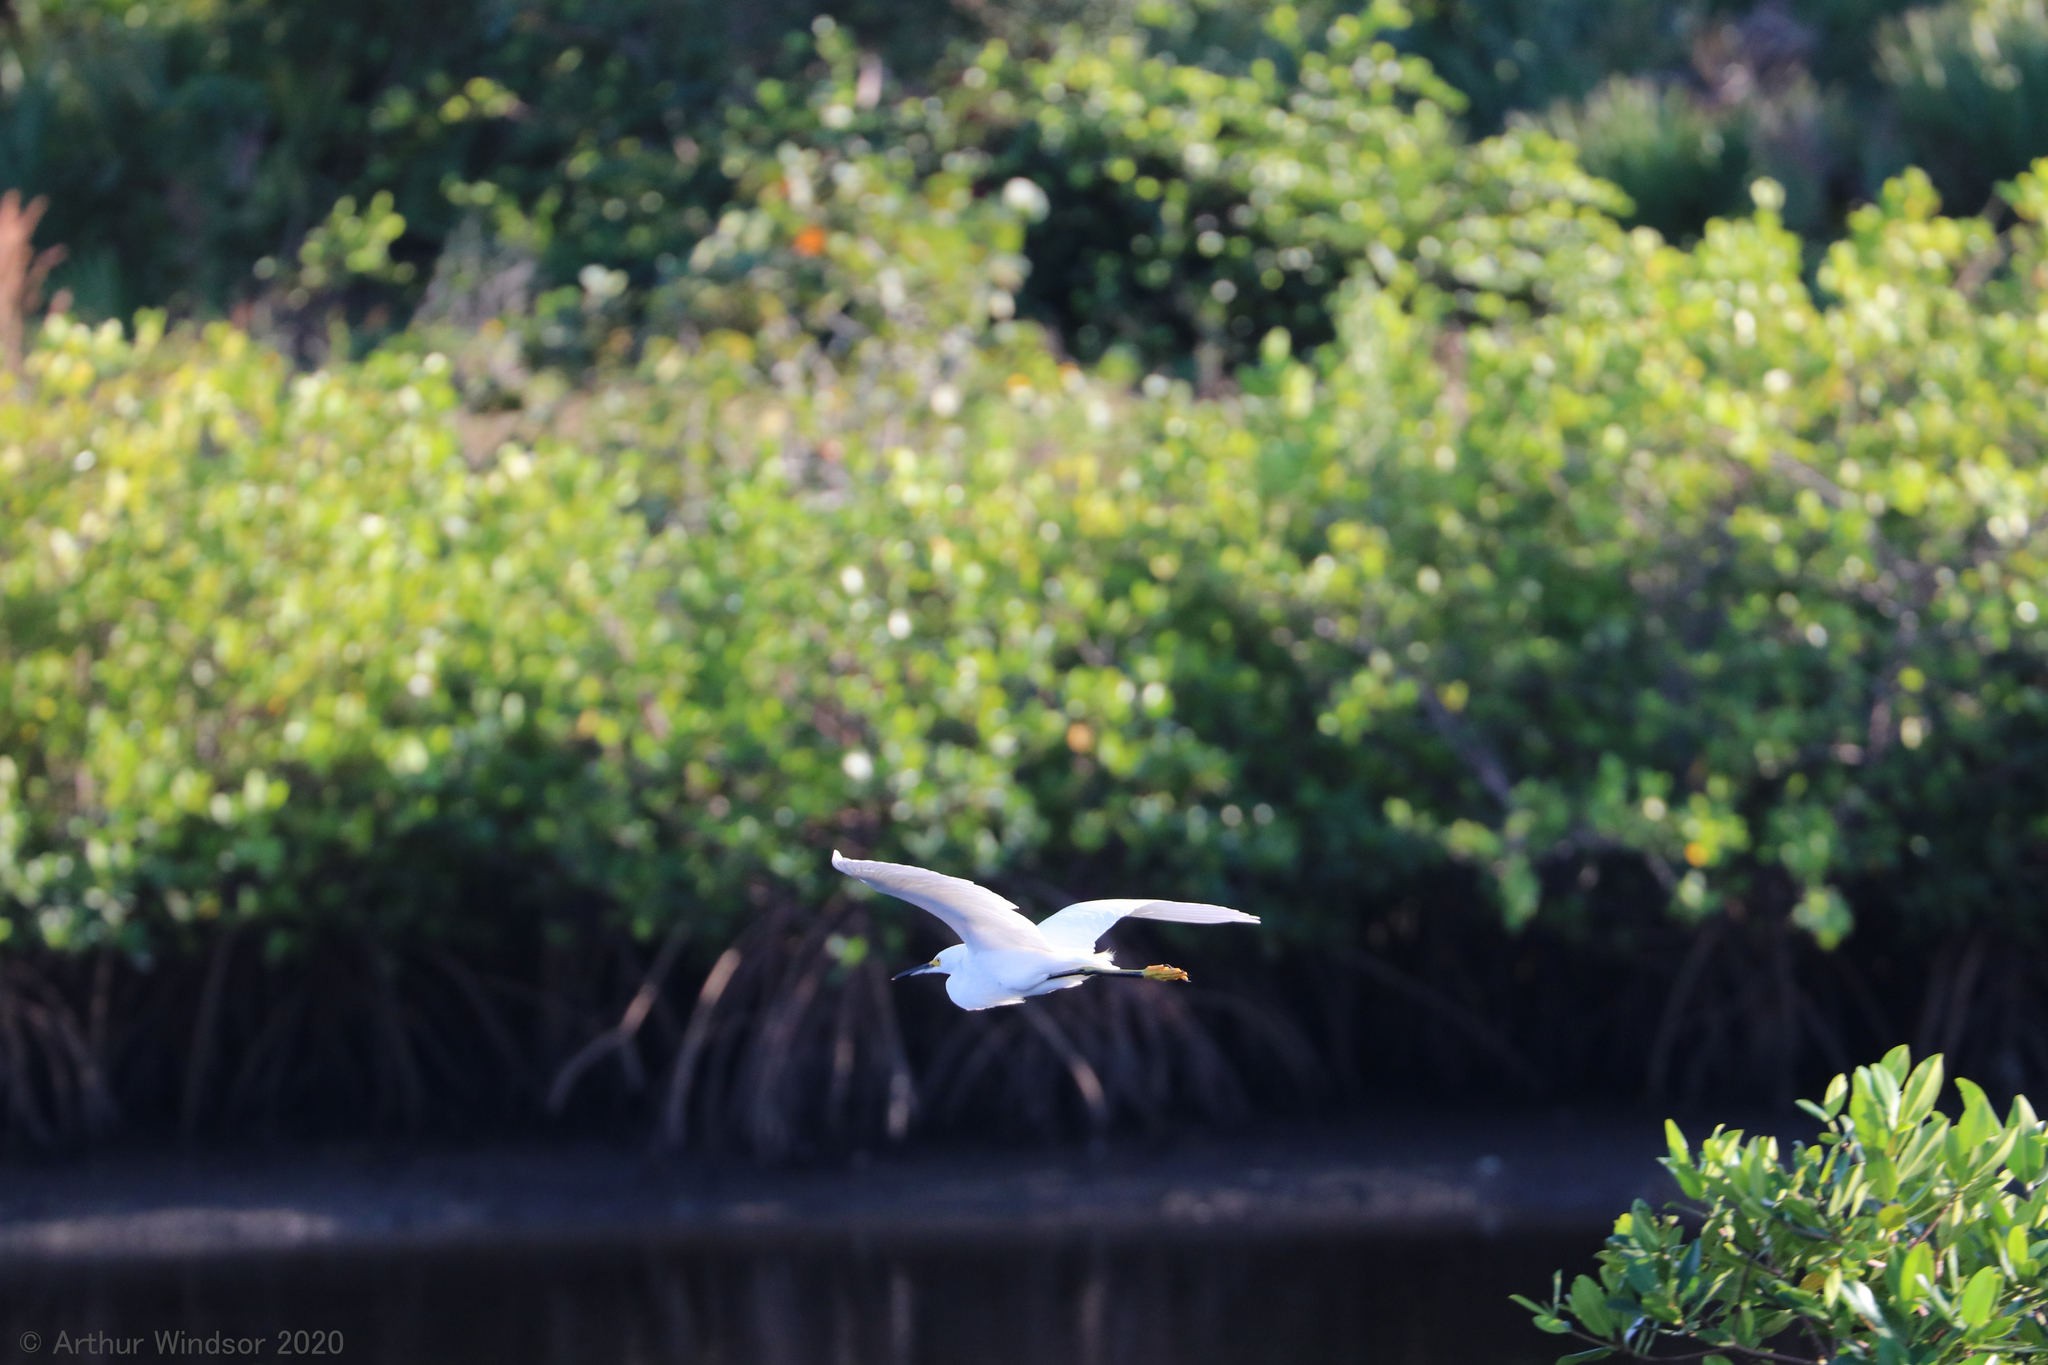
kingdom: Animalia
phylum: Chordata
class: Aves
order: Pelecaniformes
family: Ardeidae
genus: Egretta
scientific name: Egretta thula
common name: Snowy egret
